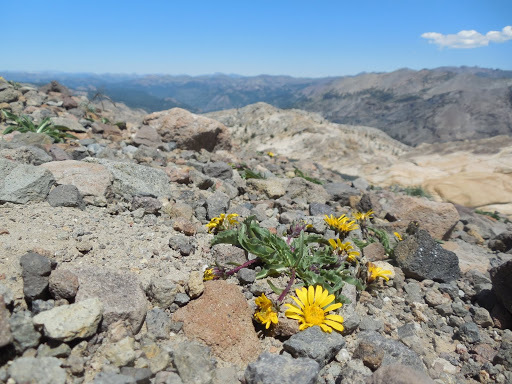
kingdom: Plantae
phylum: Tracheophyta
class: Magnoliopsida
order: Asterales
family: Asteraceae
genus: Pyrrocoma
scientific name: Pyrrocoma apargioides
